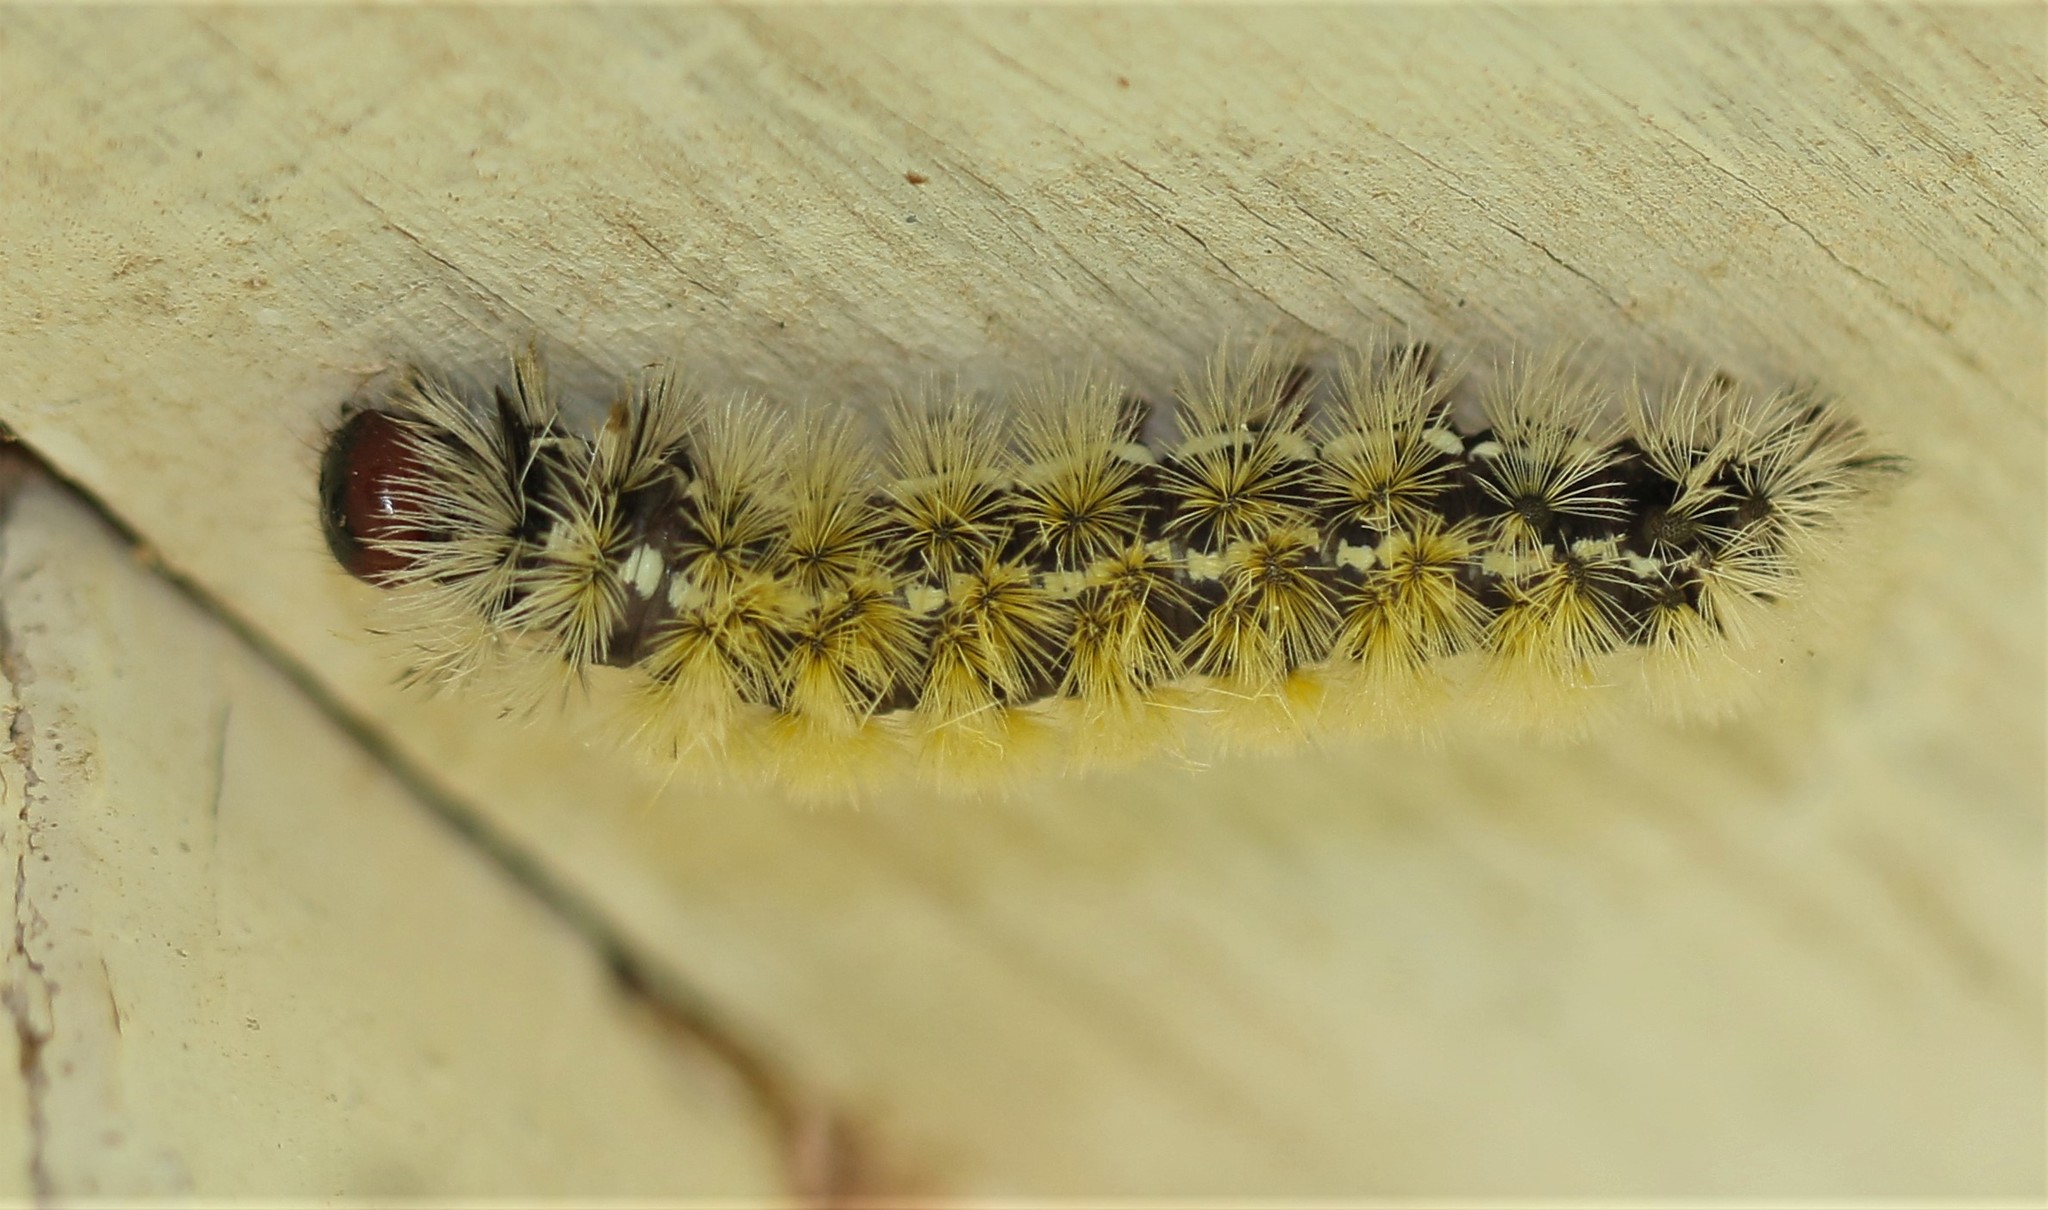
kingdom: Animalia
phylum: Arthropoda
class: Insecta
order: Lepidoptera
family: Erebidae
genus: Ctenucha
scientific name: Ctenucha virginica
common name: Virginia ctenucha moth
